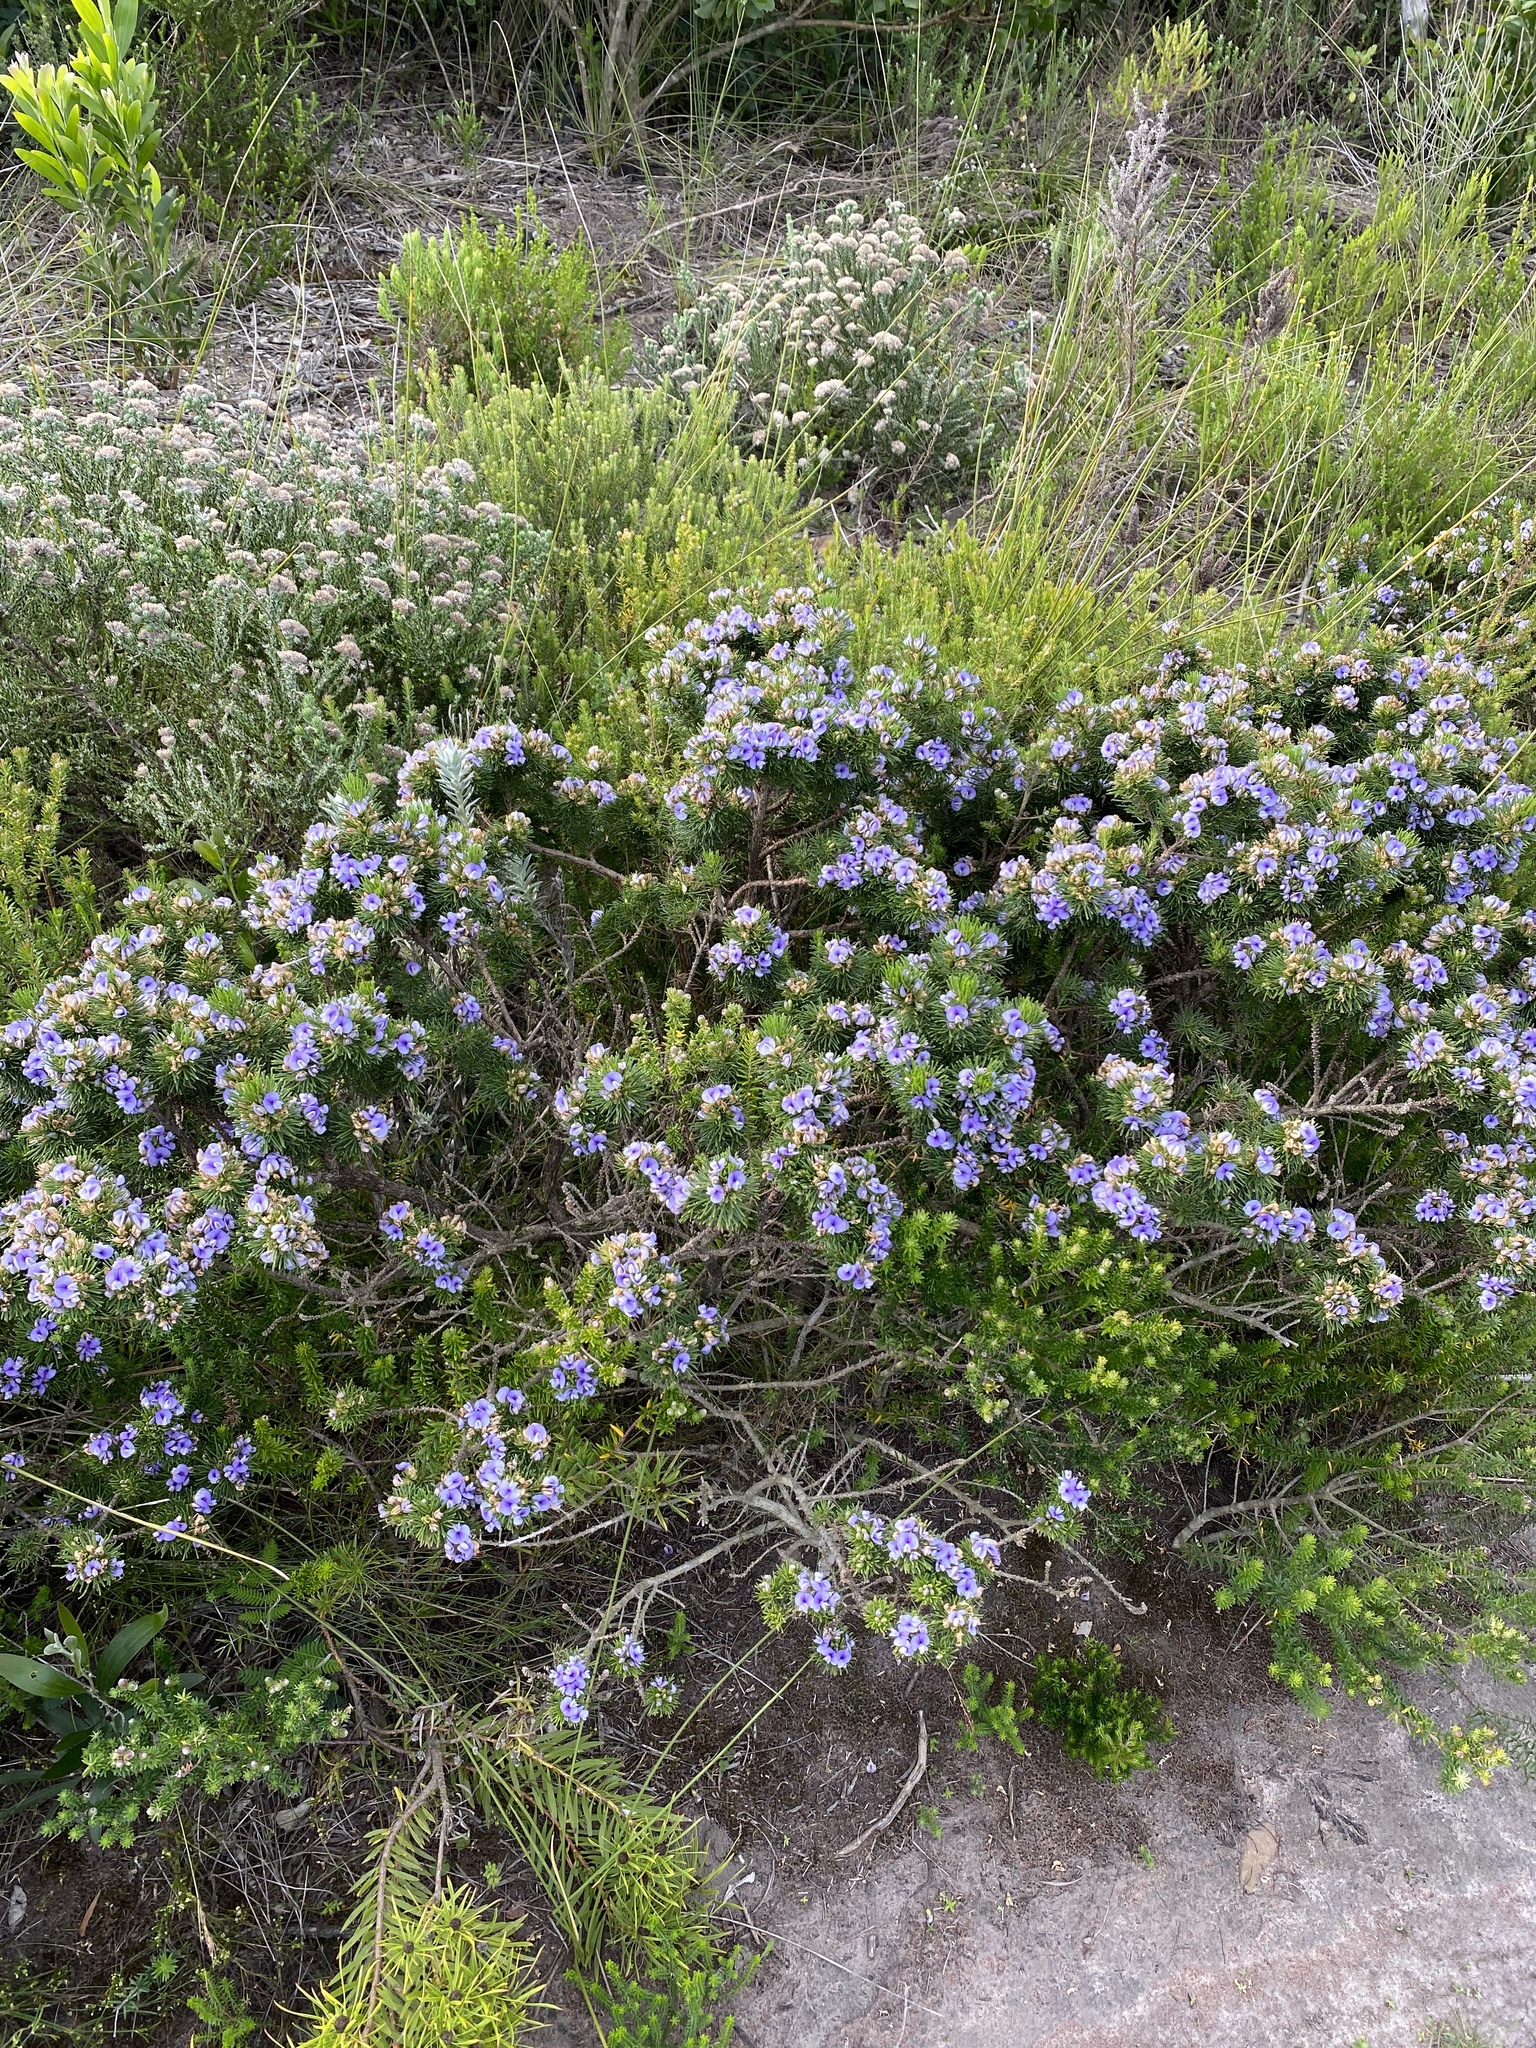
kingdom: Plantae
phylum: Tracheophyta
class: Magnoliopsida
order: Fabales
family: Fabaceae
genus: Psoralea
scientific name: Psoralea vanberkelae
